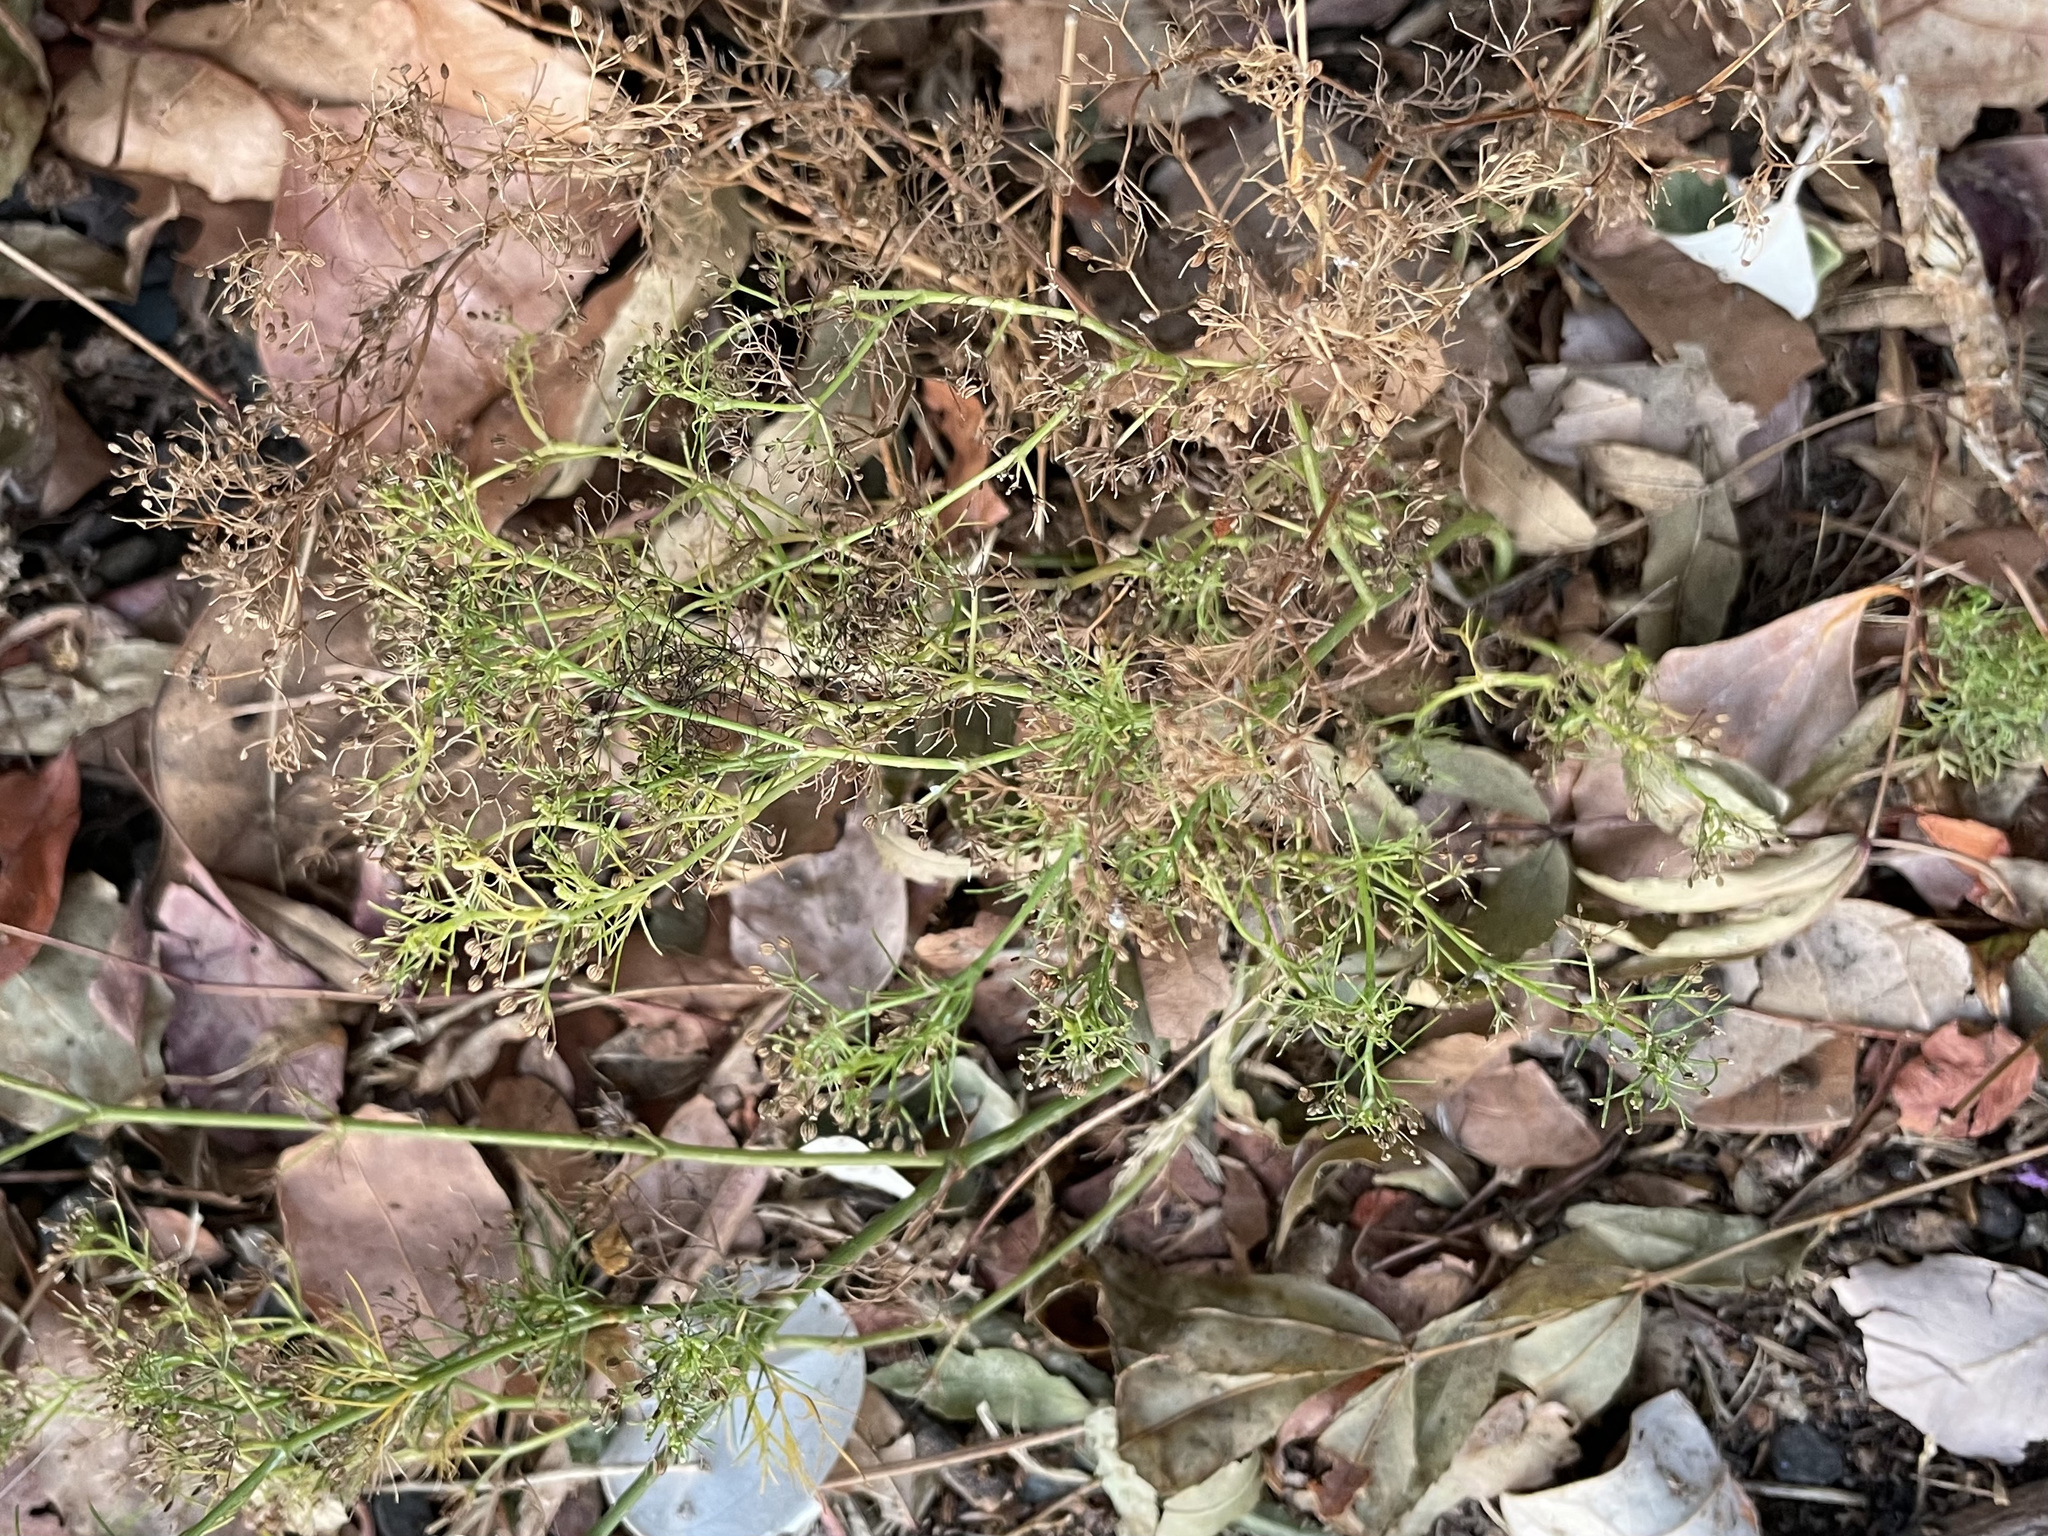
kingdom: Plantae
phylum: Tracheophyta
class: Magnoliopsida
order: Apiales
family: Apiaceae
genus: Cyclospermum
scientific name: Cyclospermum leptophyllum
